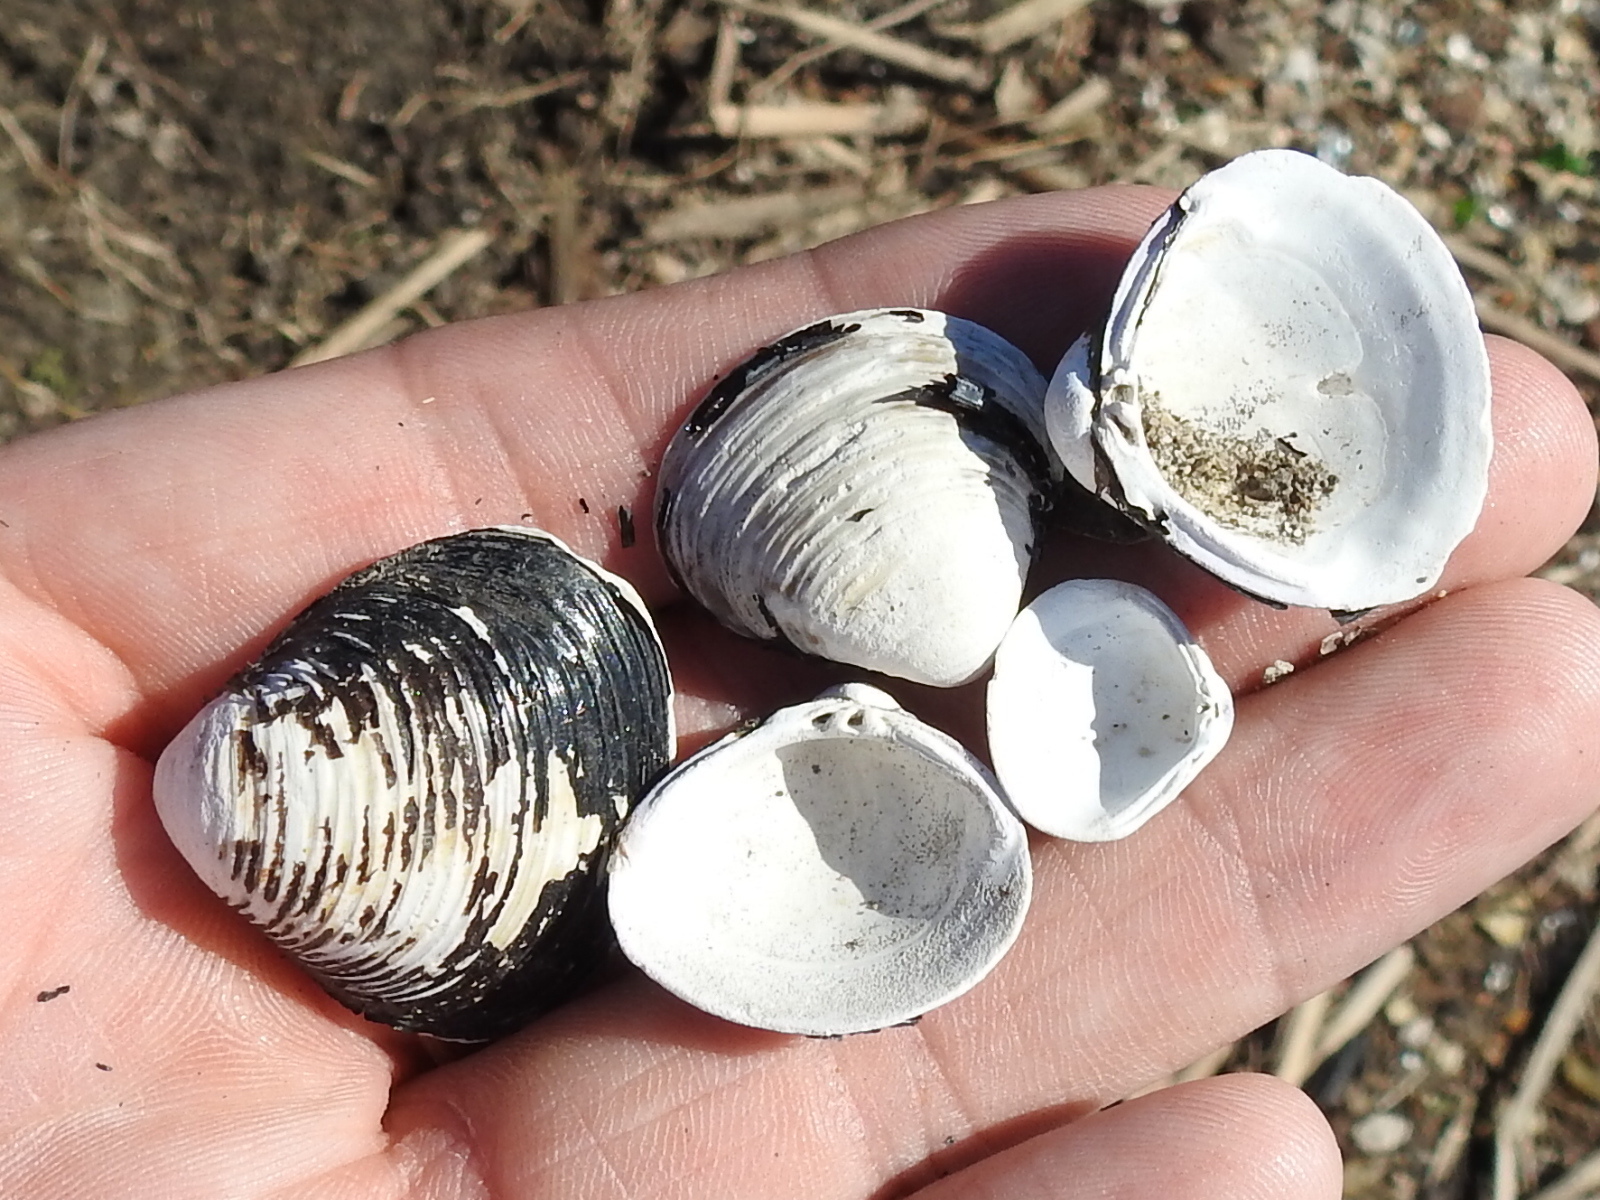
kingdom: Animalia
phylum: Mollusca
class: Bivalvia
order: Venerida
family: Cyrenidae
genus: Corbicula
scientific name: Corbicula fluminea
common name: Asian clam
